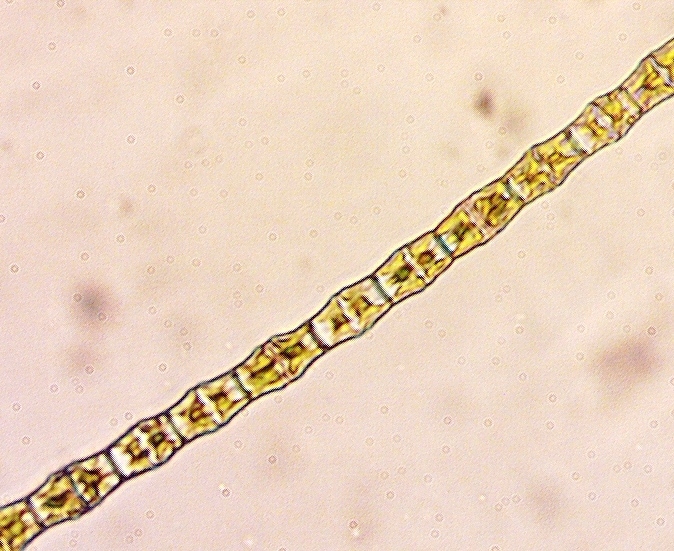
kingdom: Plantae
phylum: Charophyta
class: Conjugatophyceae
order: Desmidiales
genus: Bambusina
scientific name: Bambusina borreri
